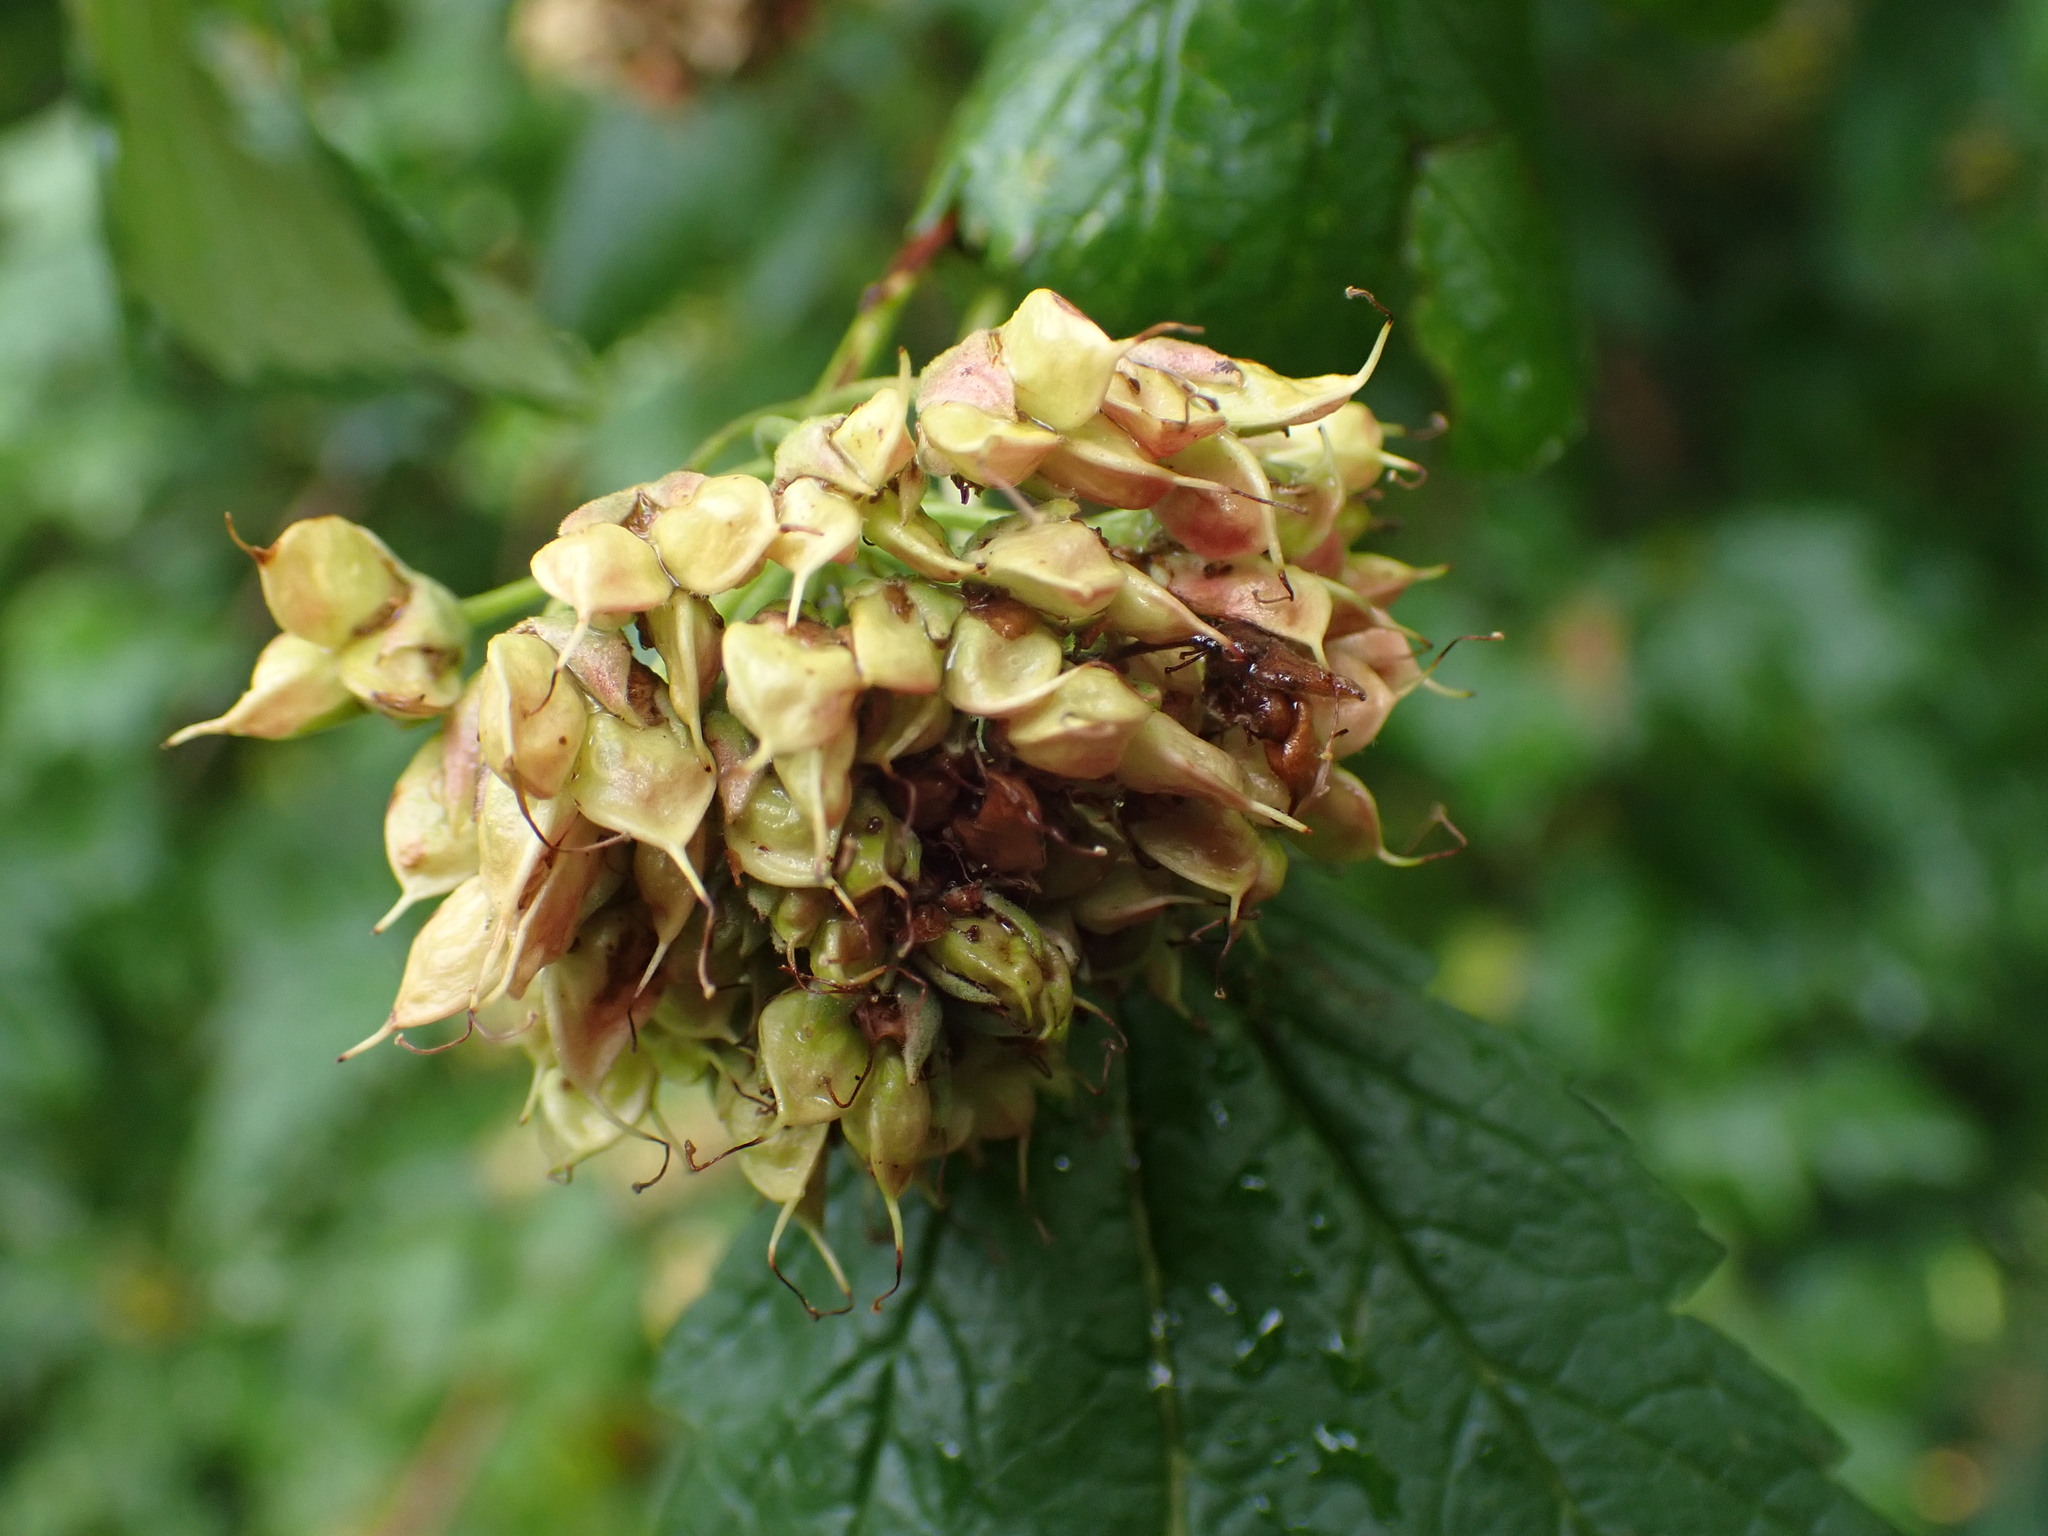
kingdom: Plantae
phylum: Tracheophyta
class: Magnoliopsida
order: Rosales
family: Rosaceae
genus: Physocarpus
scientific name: Physocarpus capitatus
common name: Pacific ninebark
